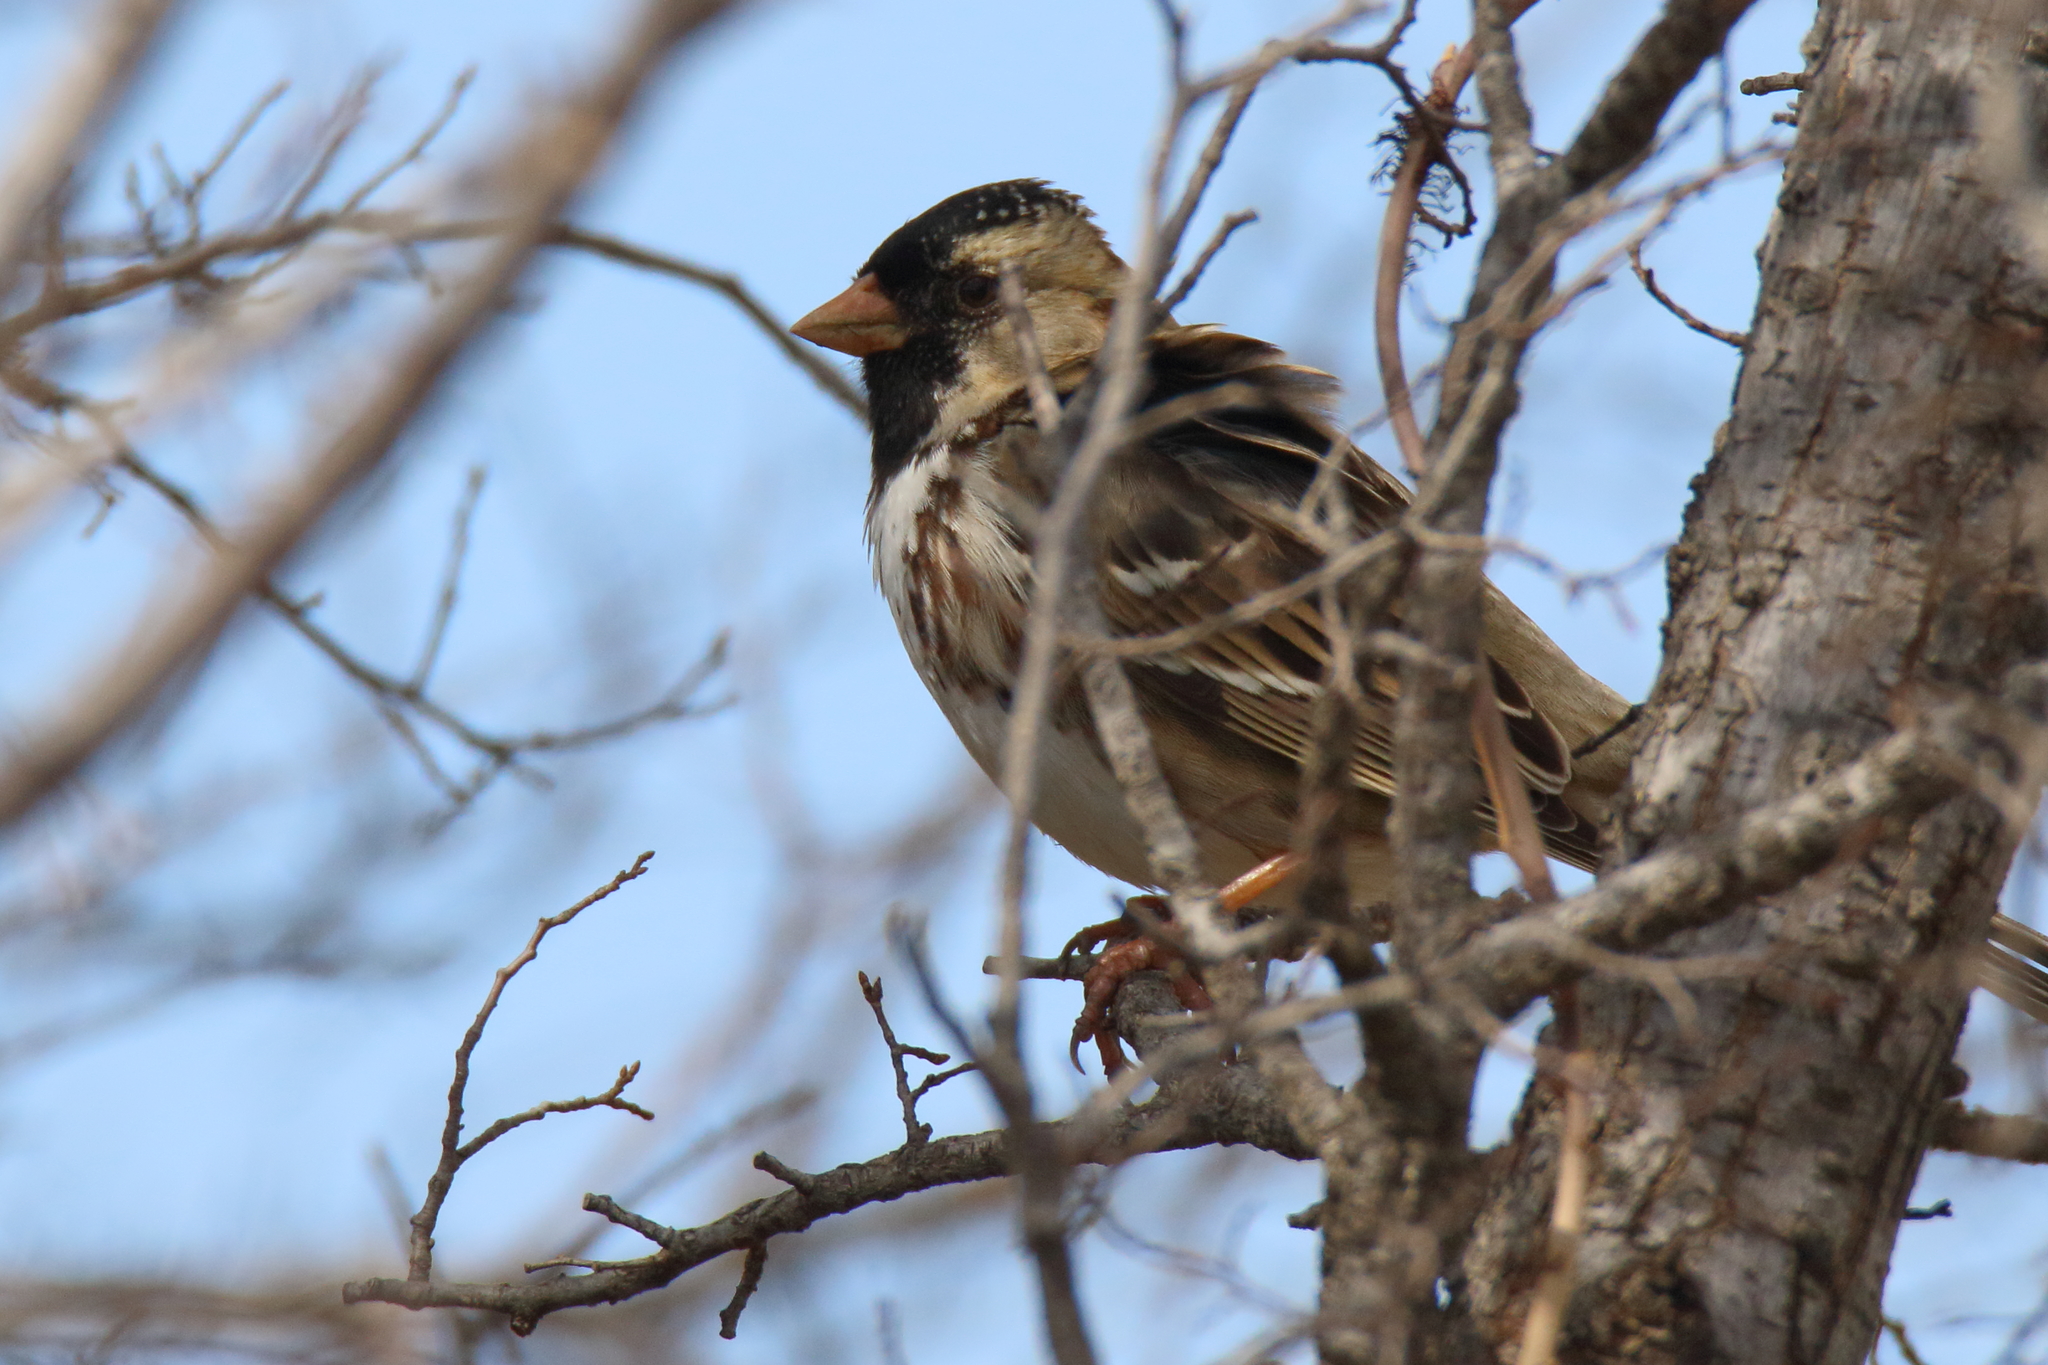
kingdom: Animalia
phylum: Chordata
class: Aves
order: Passeriformes
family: Passerellidae
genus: Zonotrichia
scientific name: Zonotrichia querula
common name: Harris's sparrow
